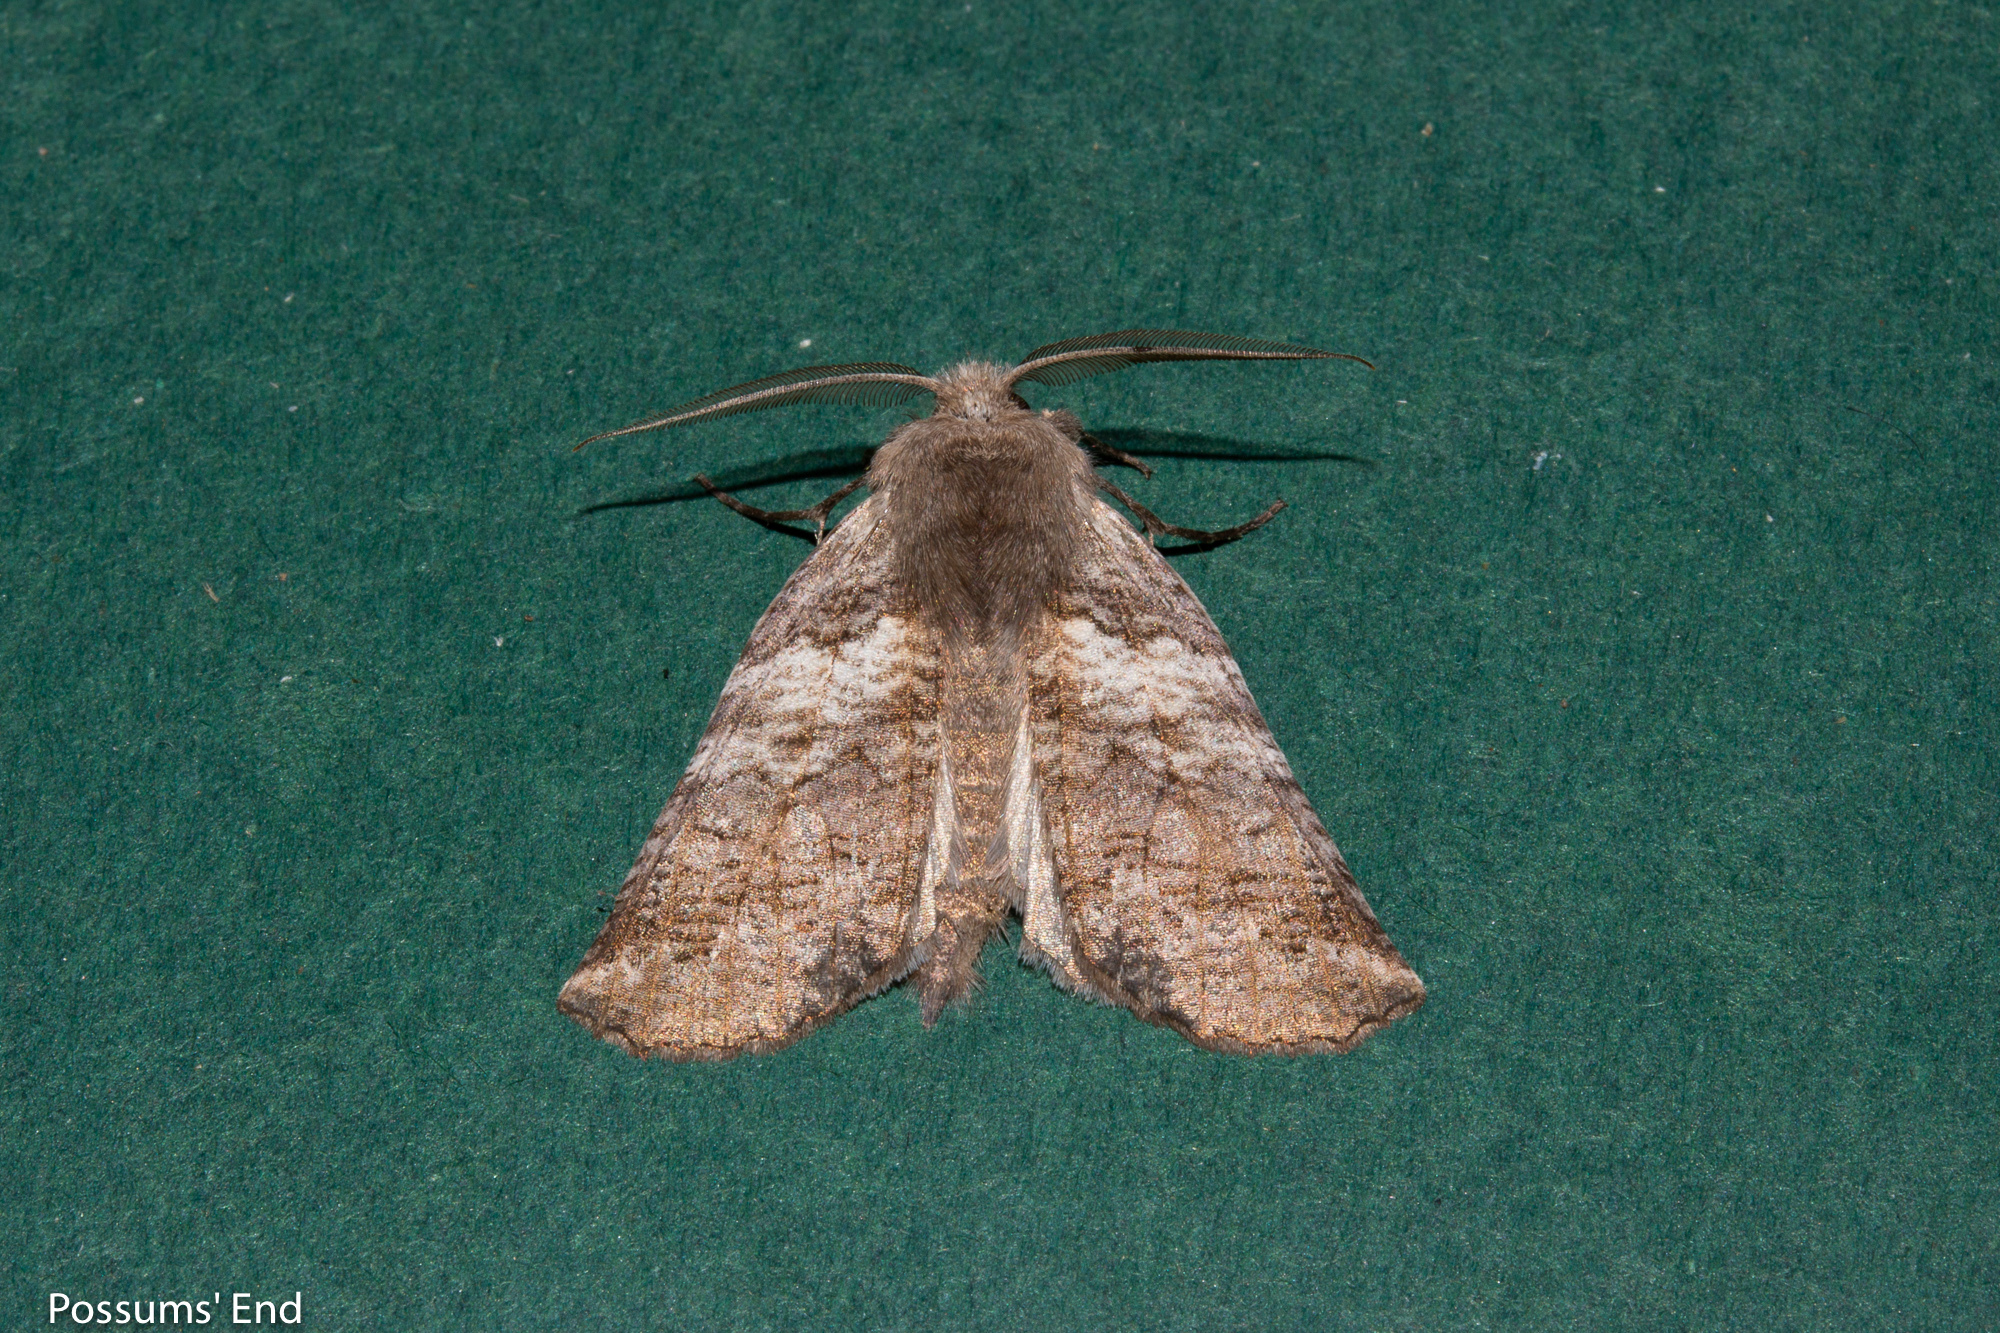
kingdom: Animalia
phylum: Arthropoda
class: Insecta
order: Lepidoptera
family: Geometridae
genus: Declana
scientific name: Declana
